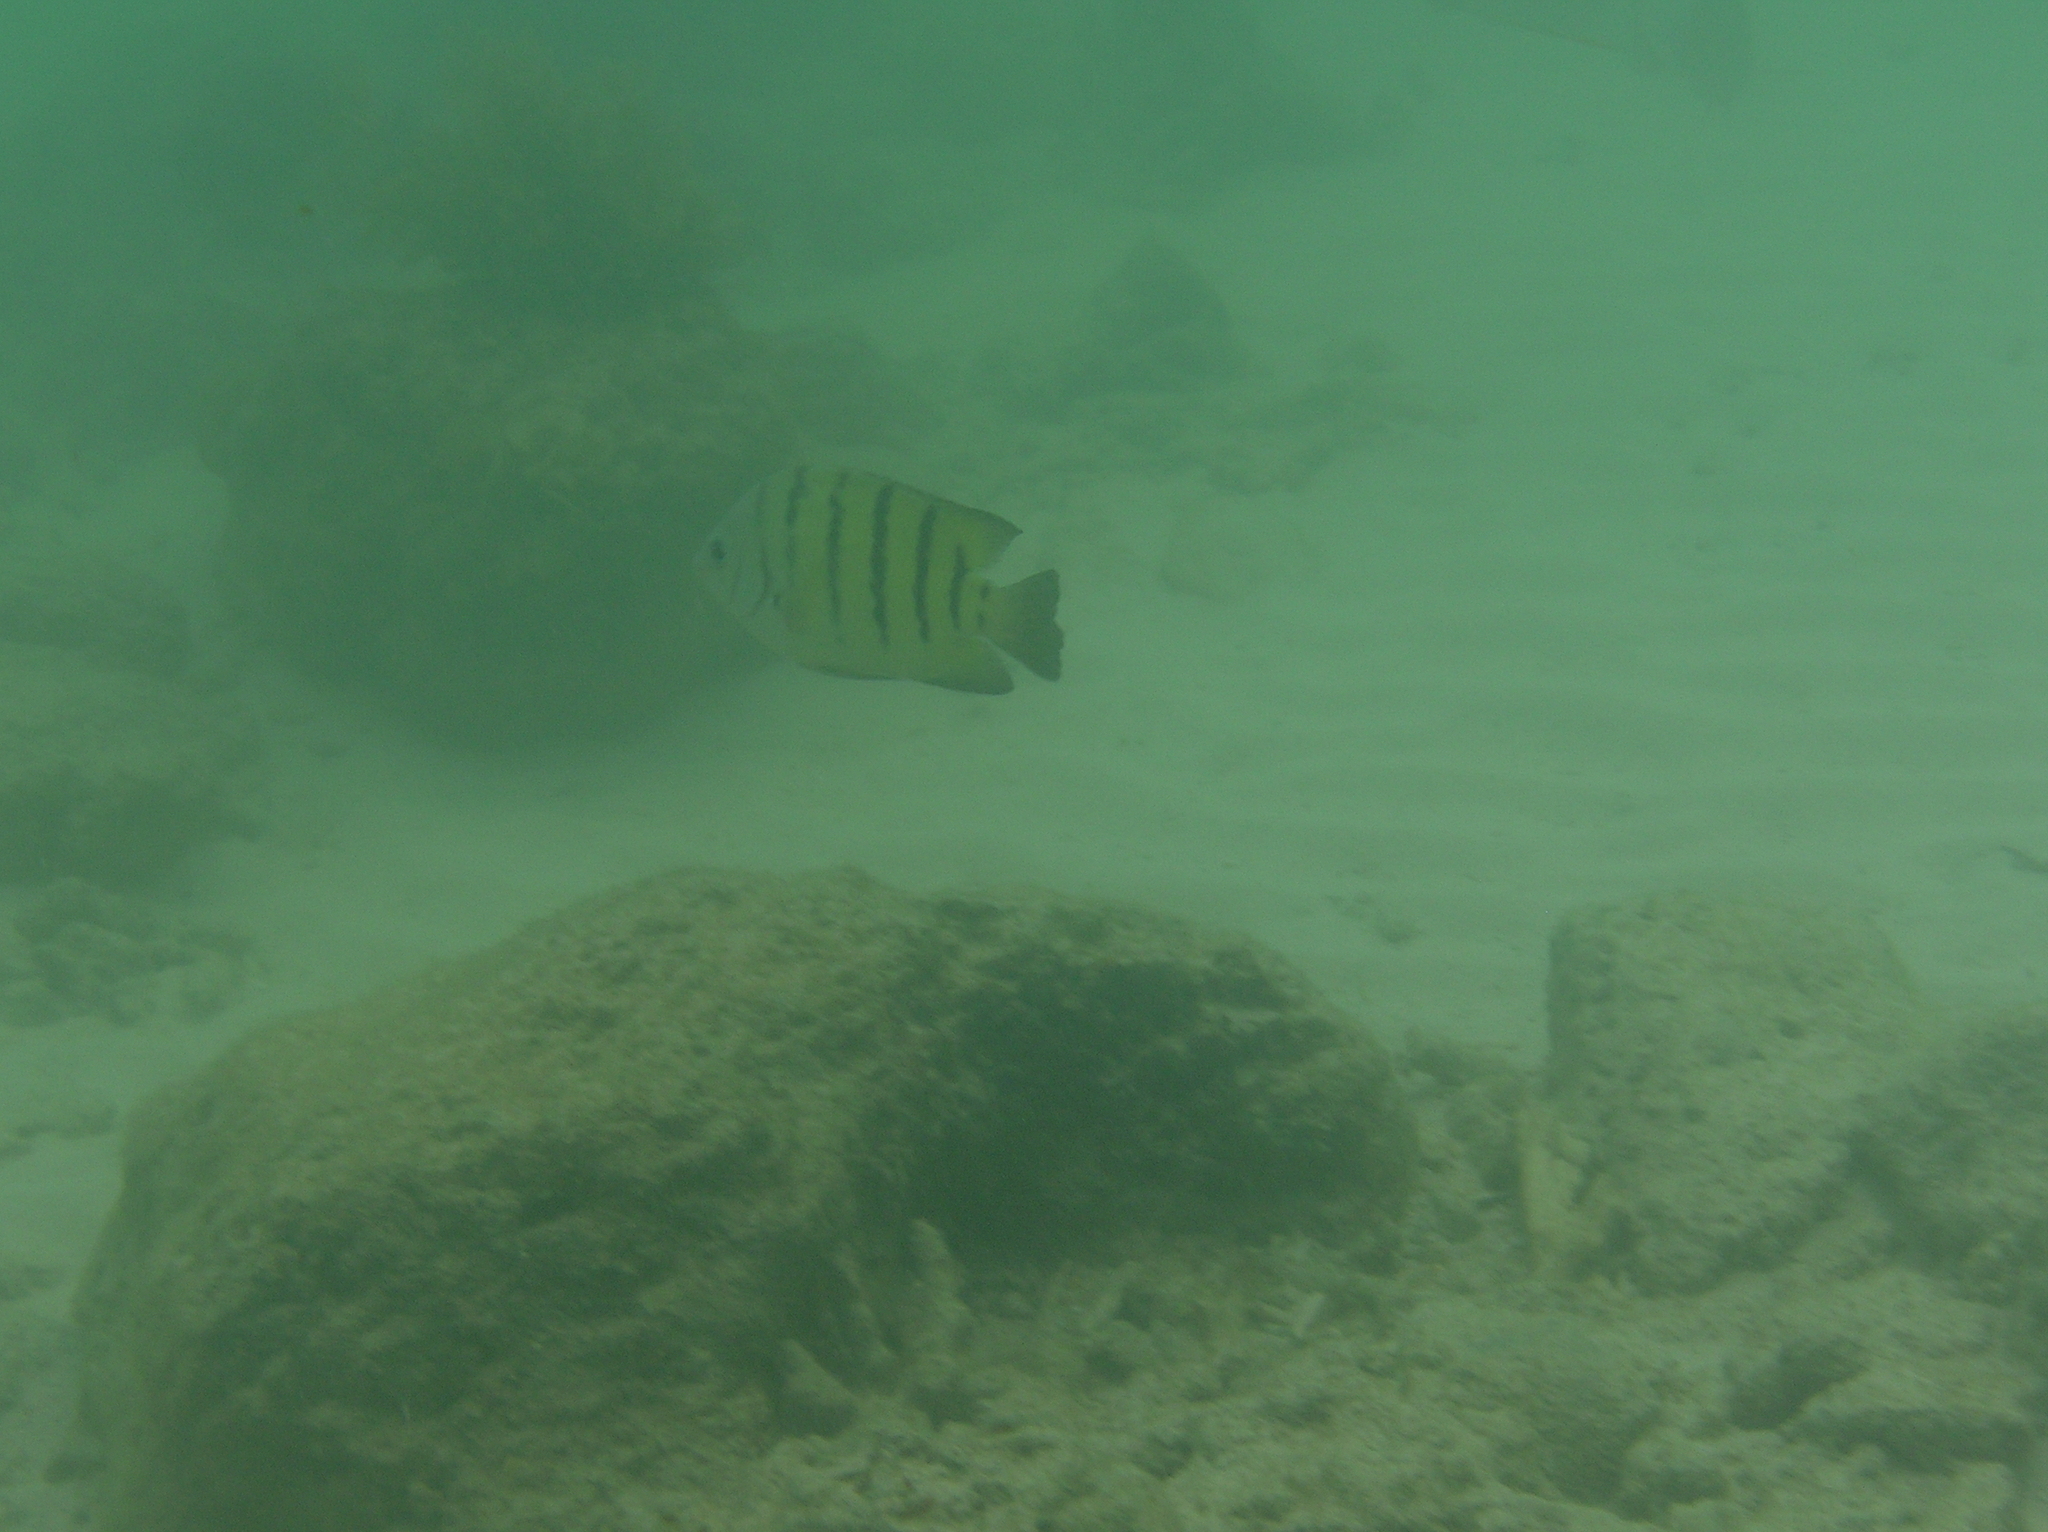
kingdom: Animalia
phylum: Chordata
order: Perciformes
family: Pomacentridae
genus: Abudefduf
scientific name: Abudefduf bengalensis
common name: Bengal sergeant
